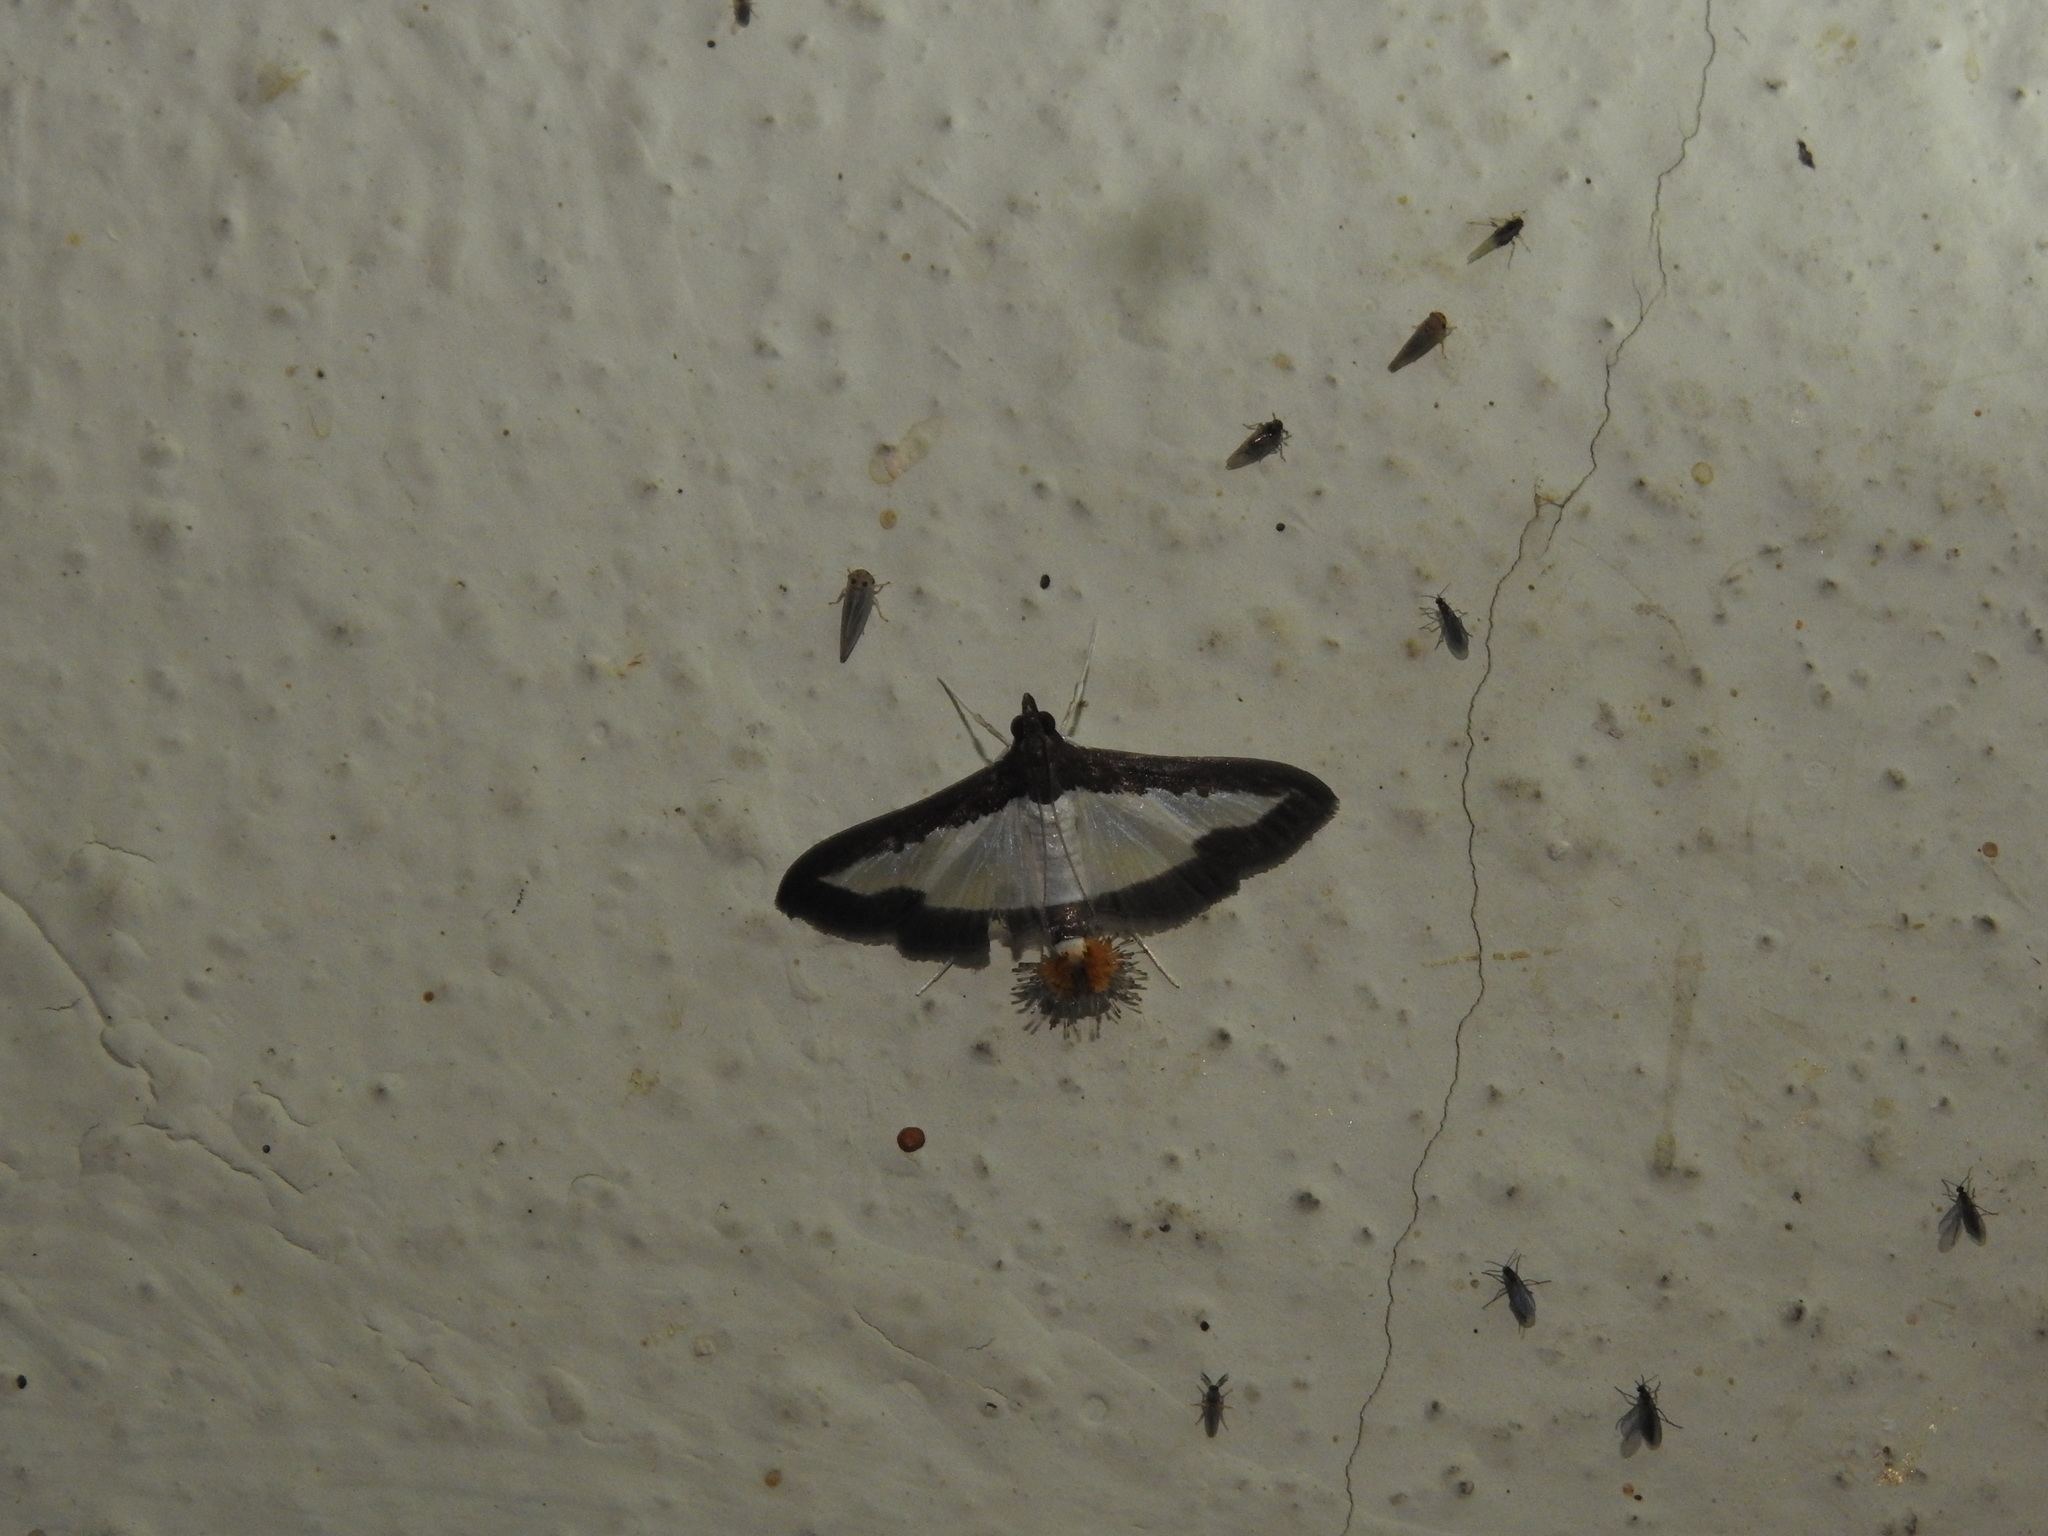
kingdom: Animalia
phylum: Arthropoda
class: Insecta
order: Lepidoptera
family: Crambidae
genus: Diaphania
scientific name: Diaphania indica
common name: Cucumber moth
